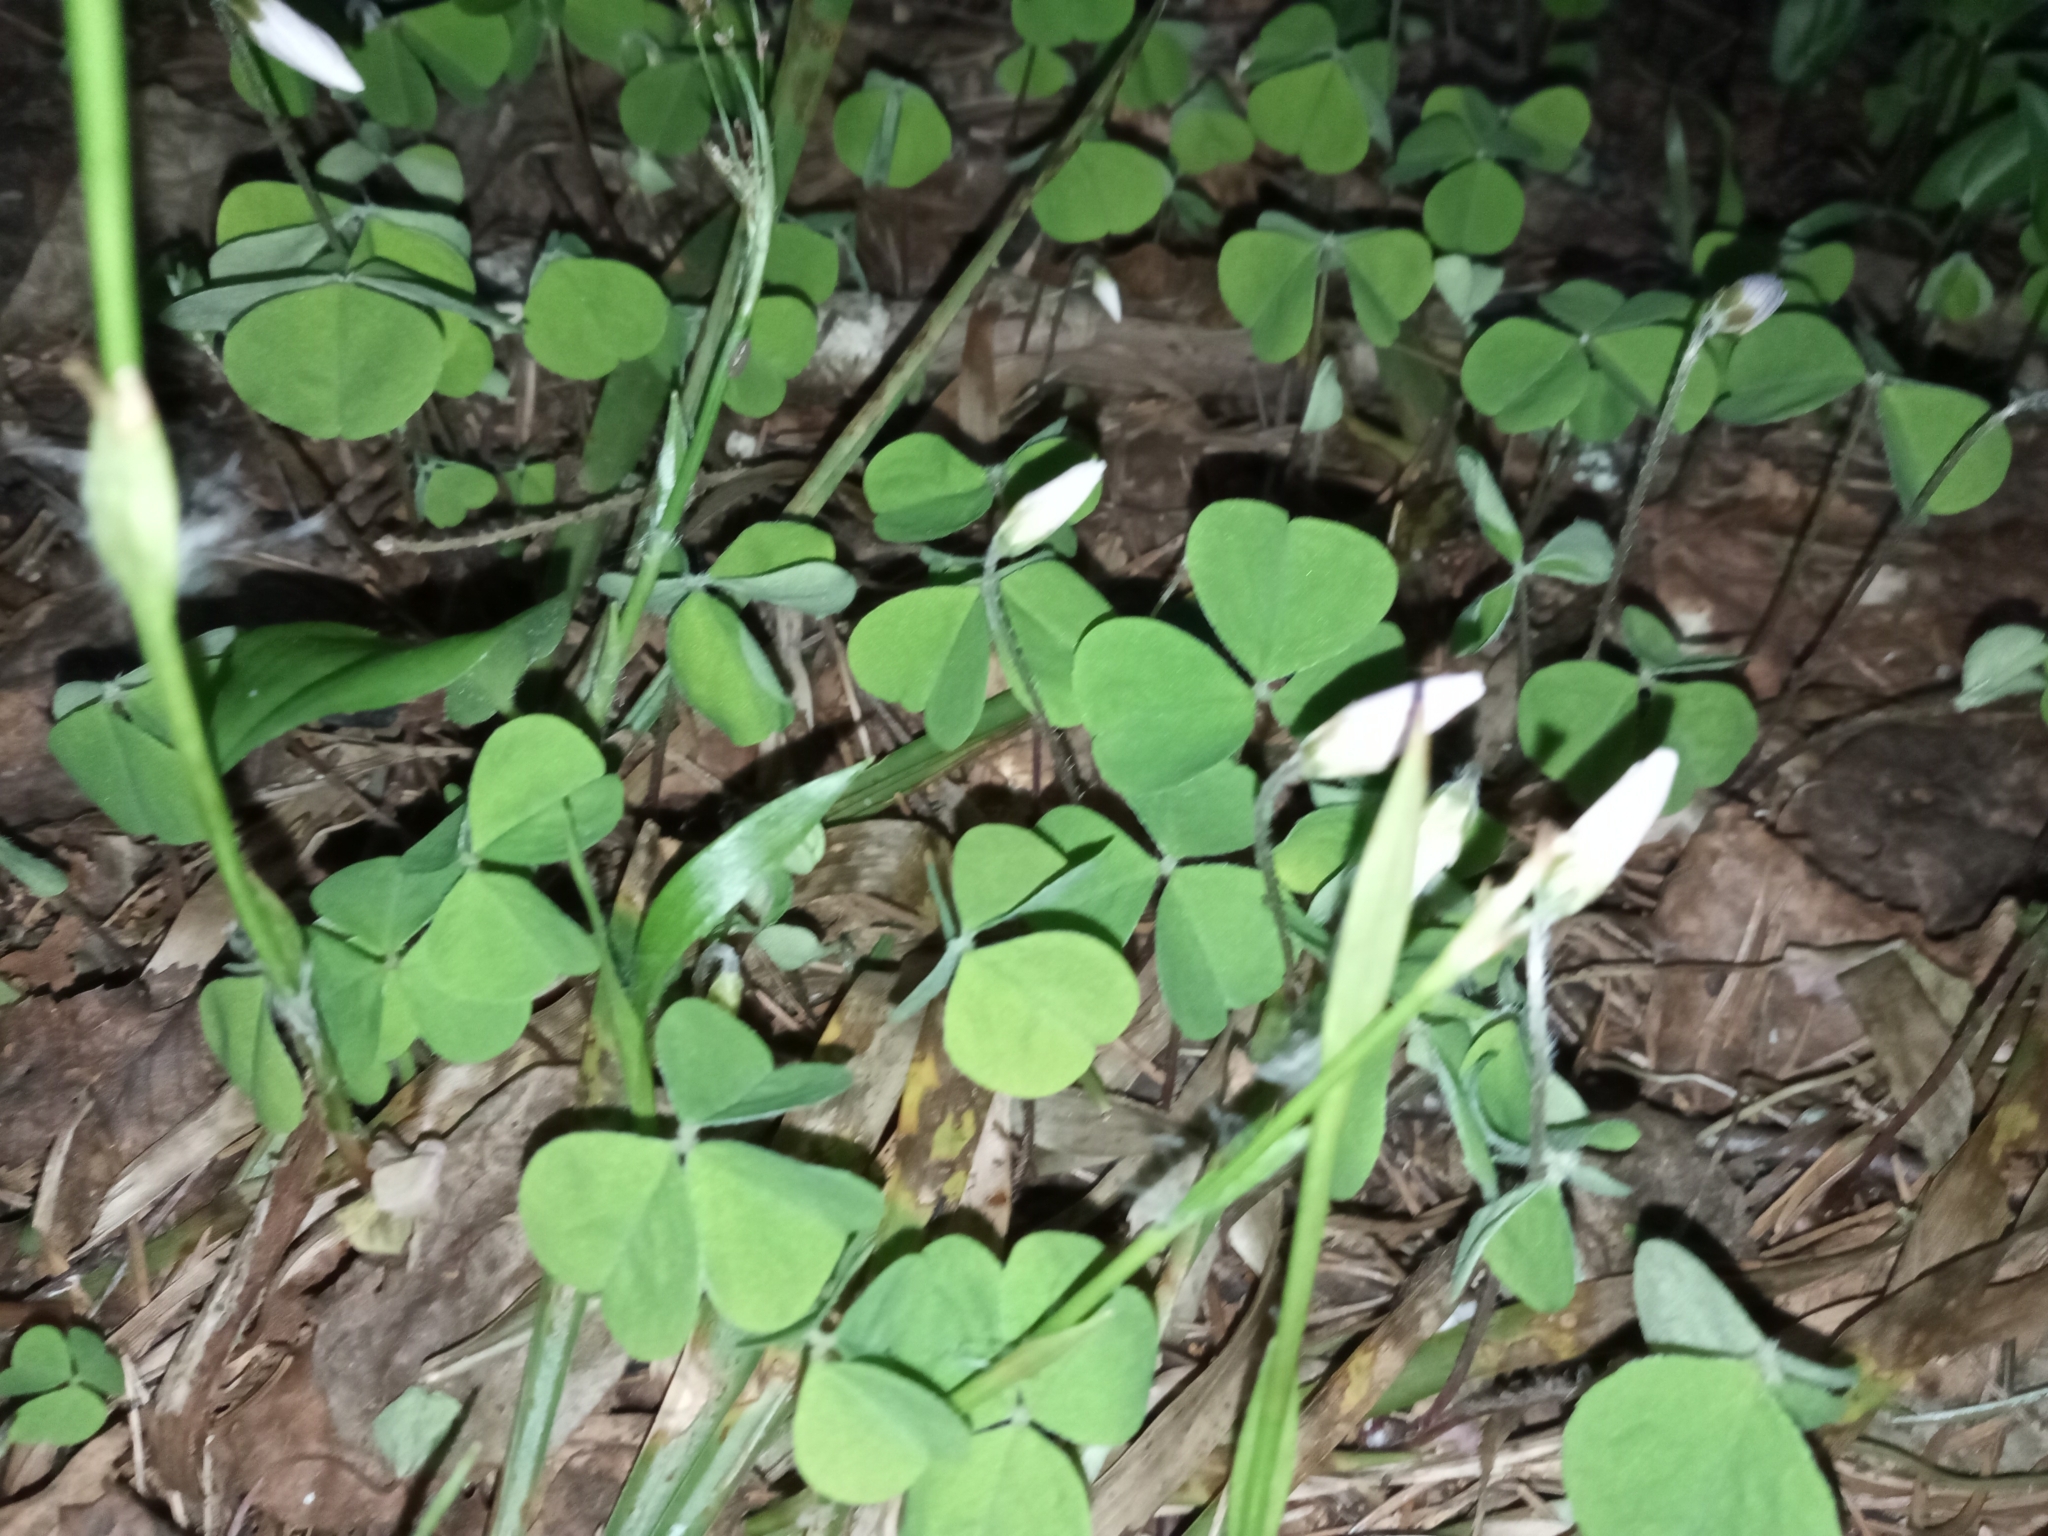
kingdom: Plantae
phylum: Tracheophyta
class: Magnoliopsida
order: Oxalidales
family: Oxalidaceae
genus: Oxalis
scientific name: Oxalis acetosella
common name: Wood-sorrel
